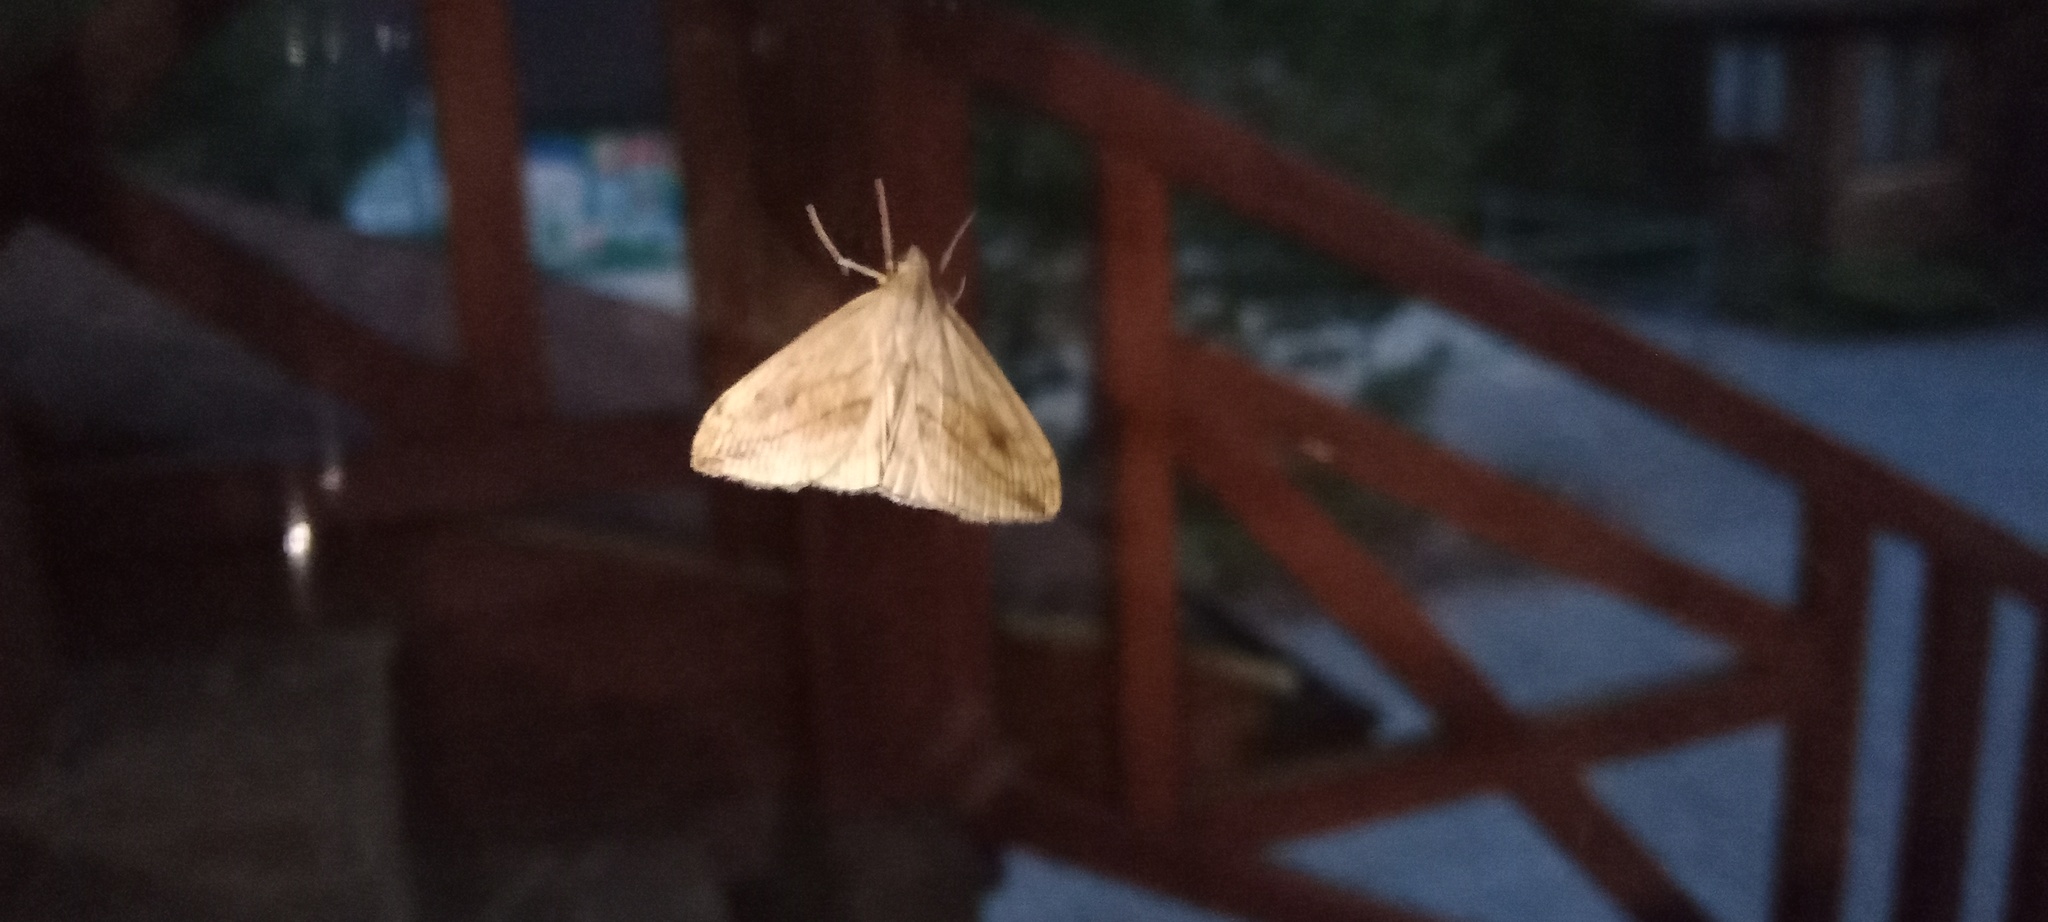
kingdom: Animalia
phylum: Arthropoda
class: Insecta
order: Lepidoptera
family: Crambidae
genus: Evergestis
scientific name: Evergestis forficalis
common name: Garden pebble
